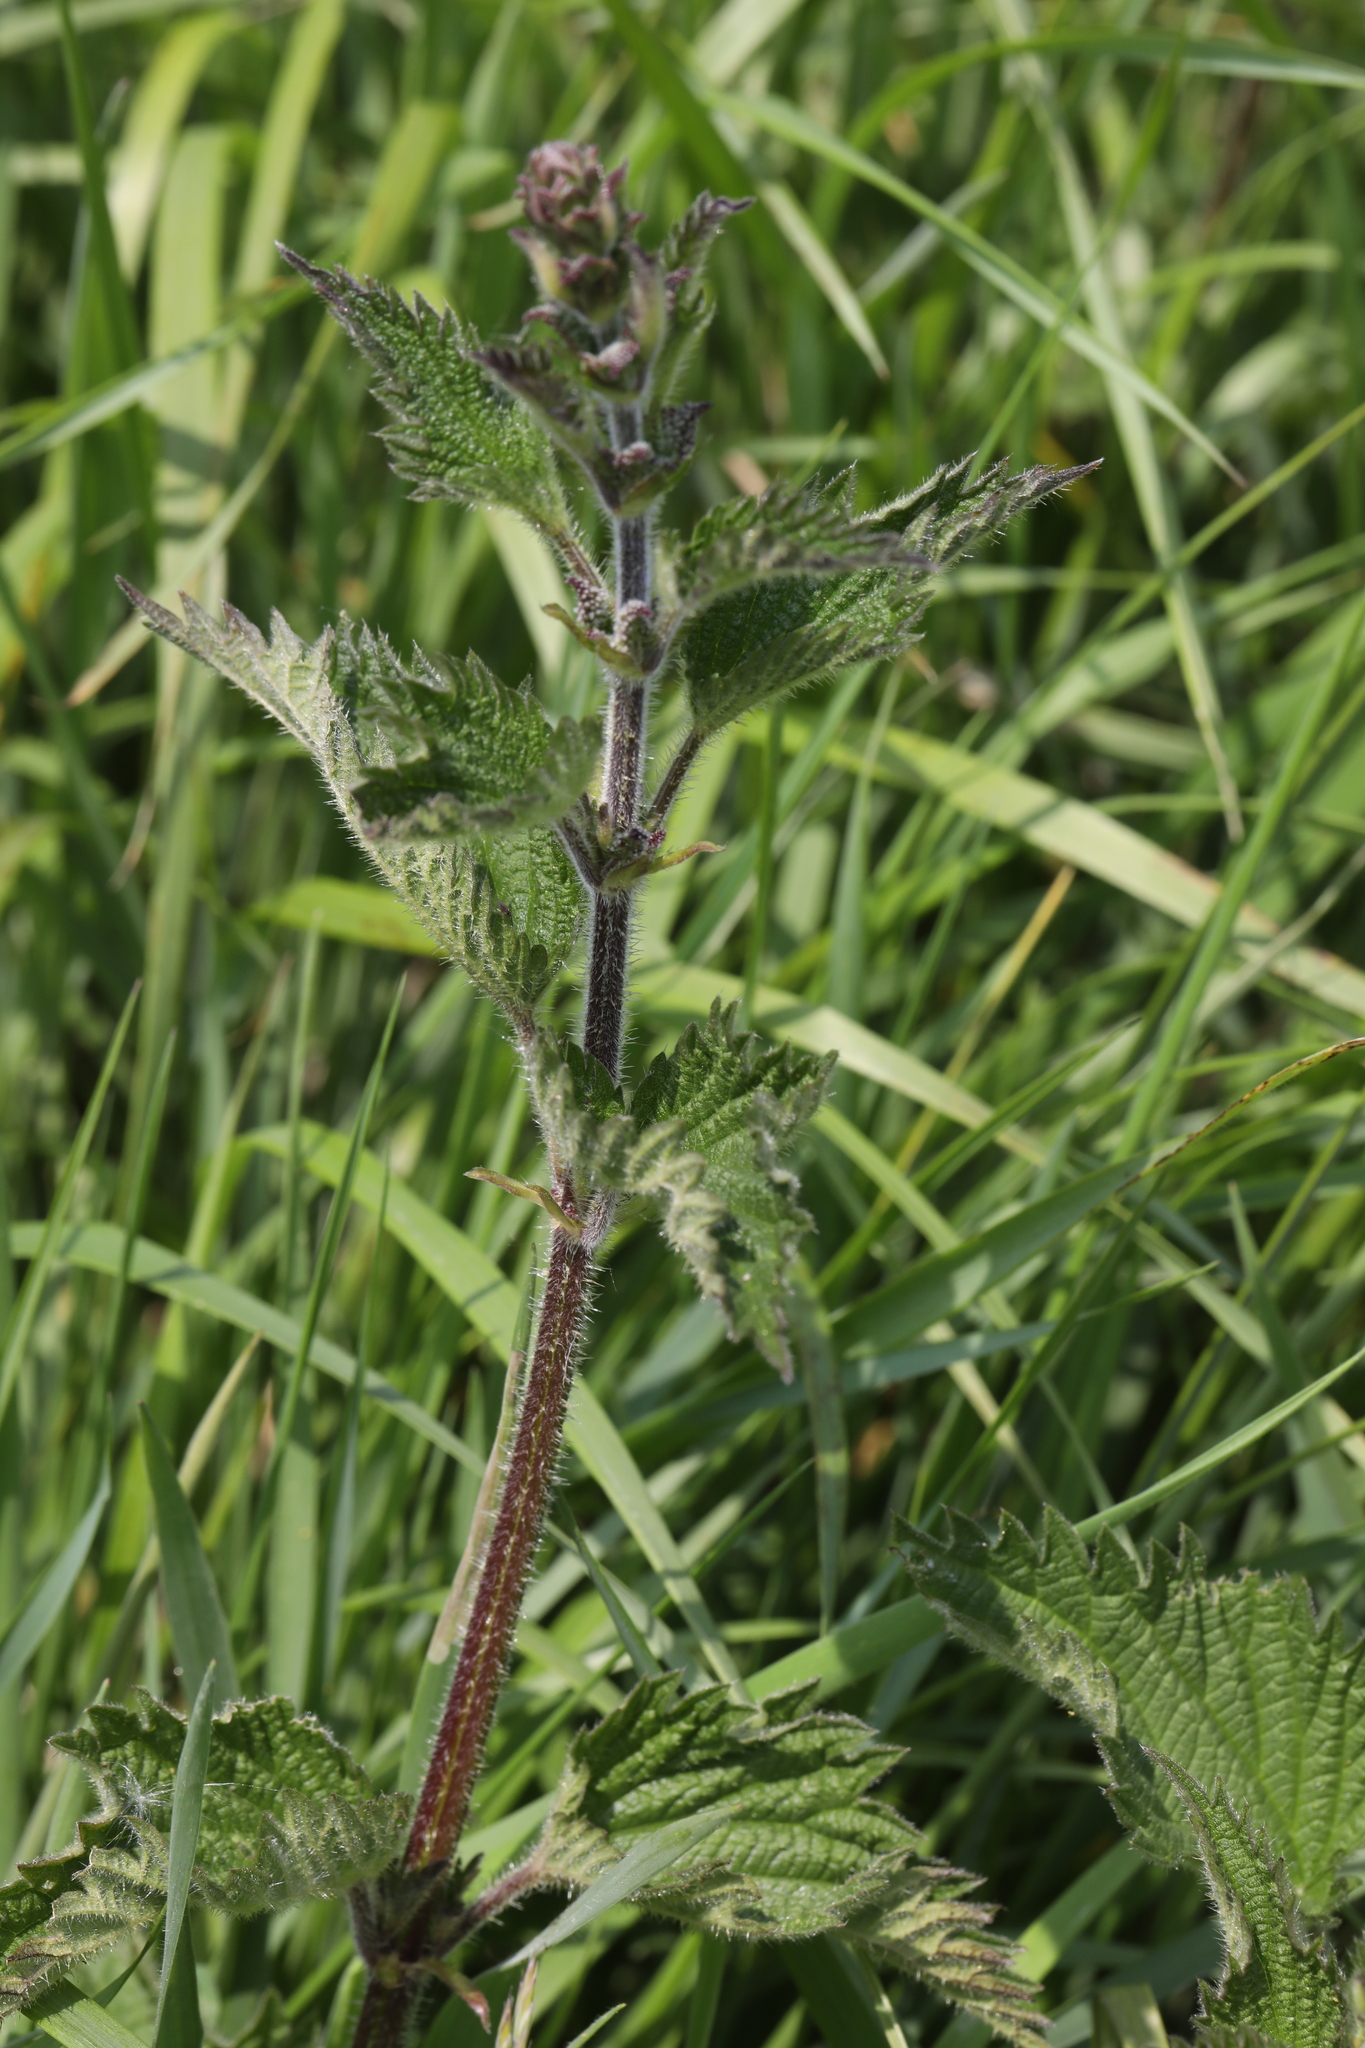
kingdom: Plantae
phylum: Tracheophyta
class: Magnoliopsida
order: Rosales
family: Urticaceae
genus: Urtica
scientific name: Urtica dioica
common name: Common nettle
